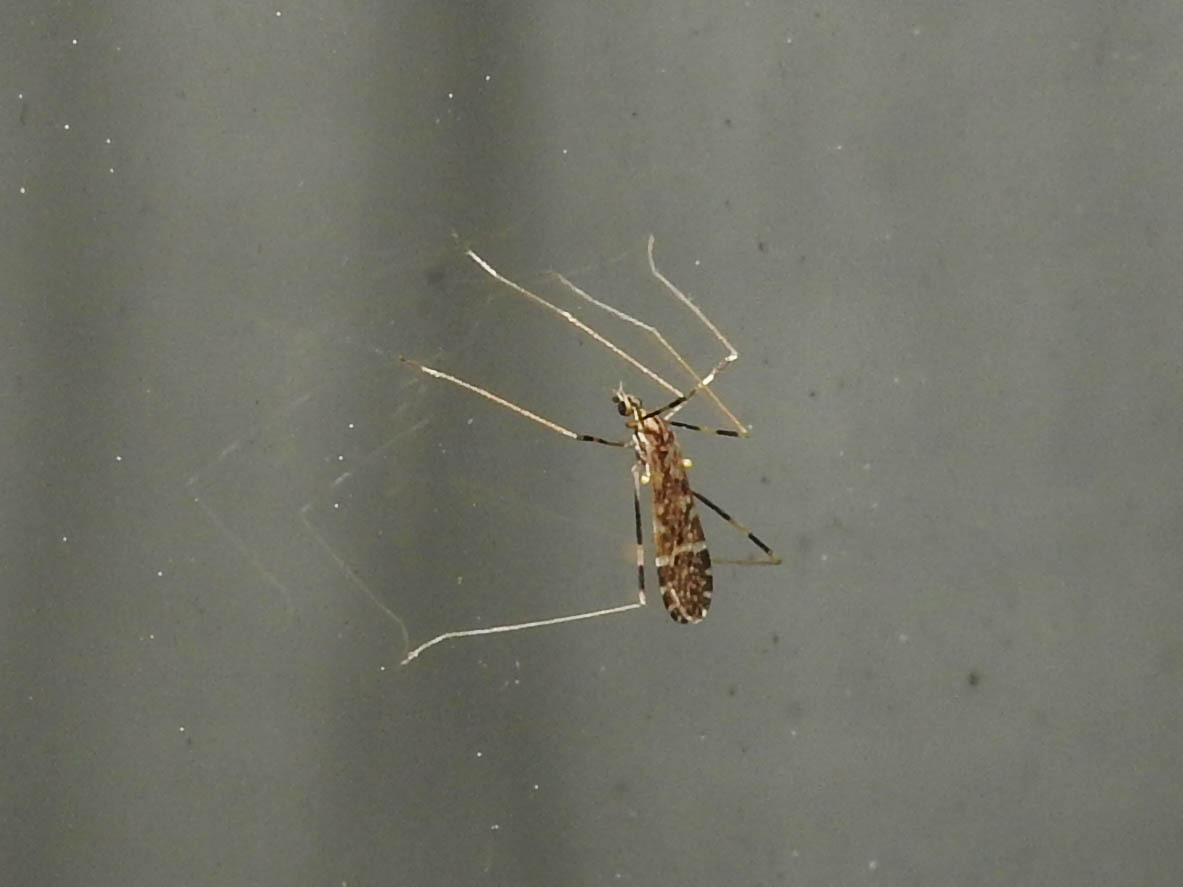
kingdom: Animalia
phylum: Arthropoda
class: Insecta
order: Diptera
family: Limoniidae
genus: Erioptera
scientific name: Erioptera caliptera
